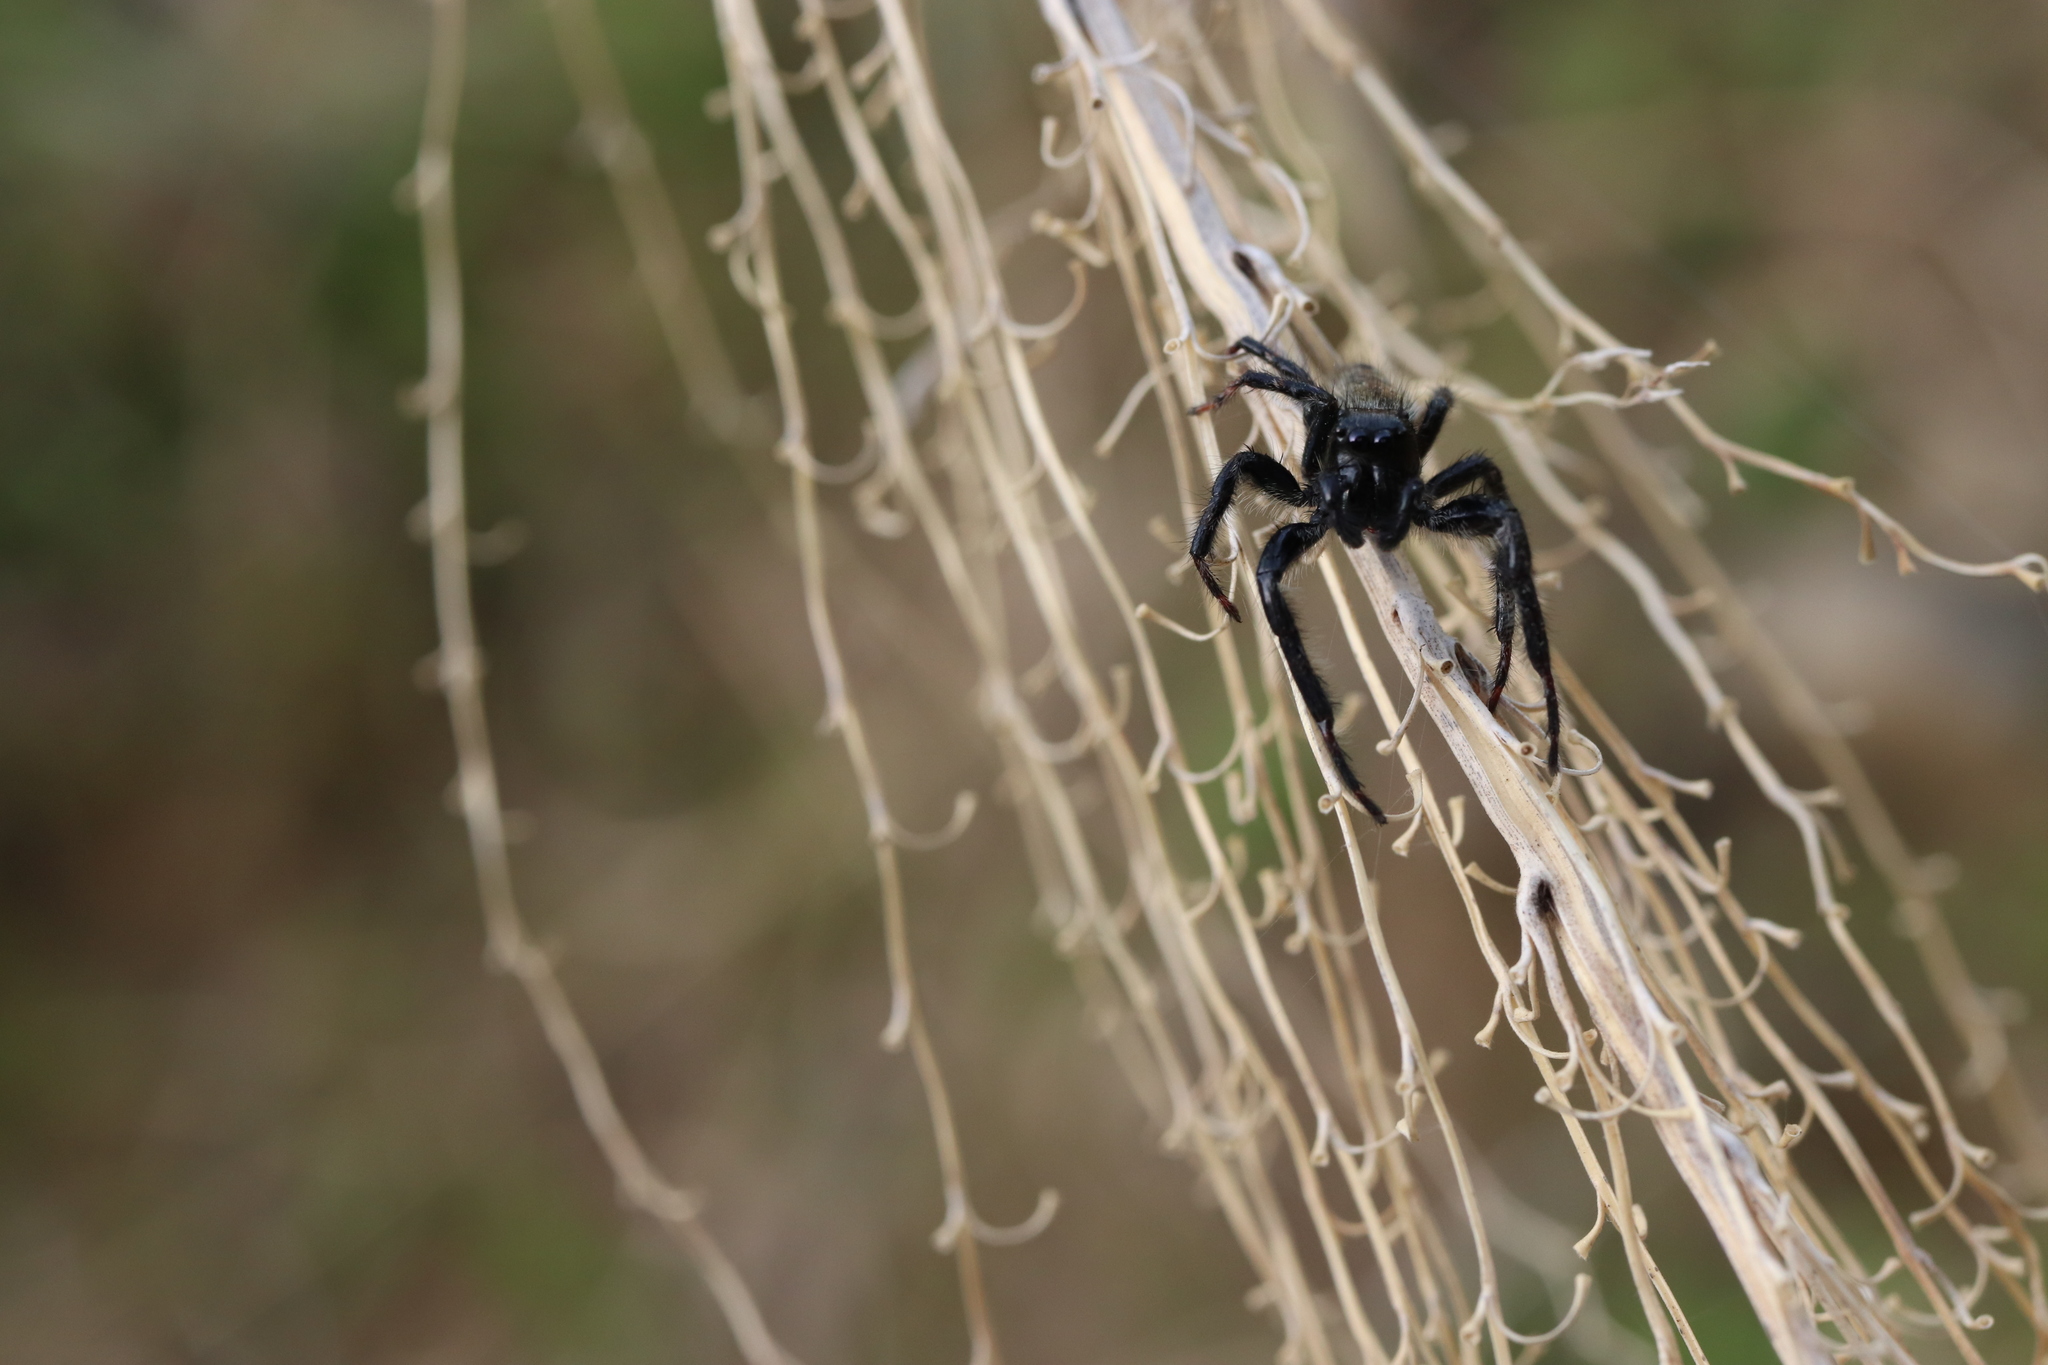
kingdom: Animalia
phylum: Arthropoda
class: Arachnida
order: Araneae
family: Salticidae
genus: Carrhotus
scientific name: Carrhotus xanthogramma
